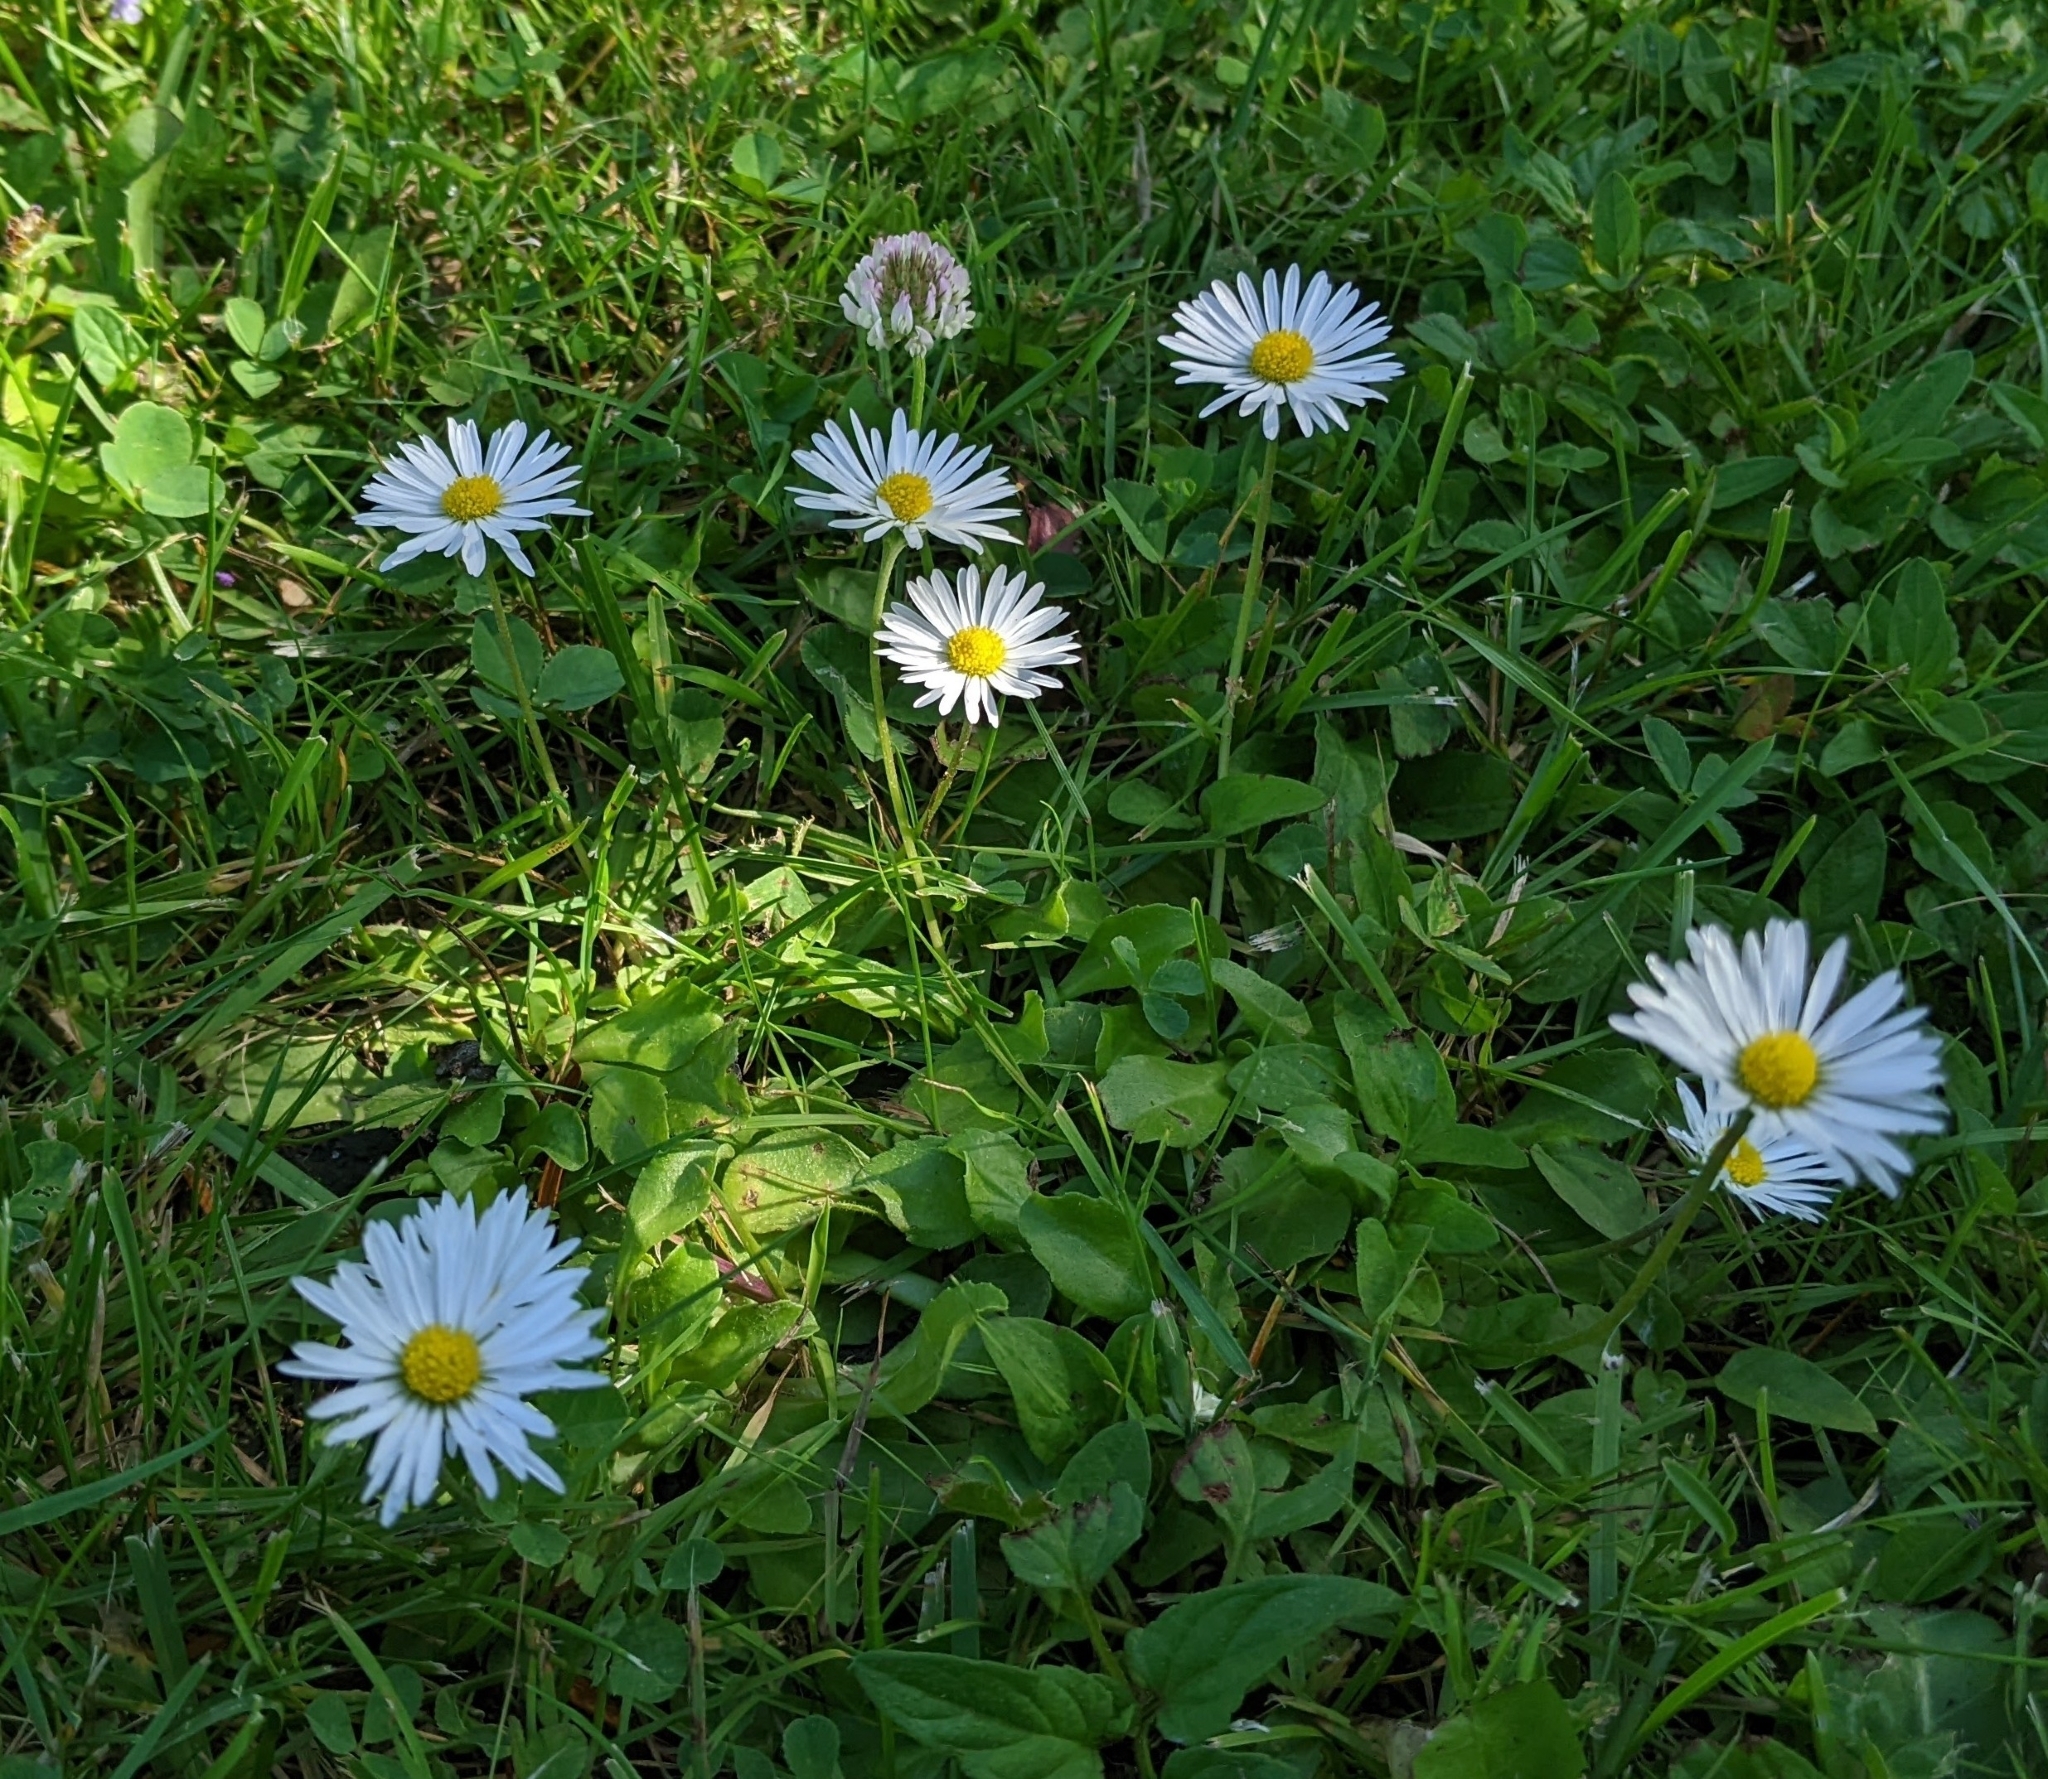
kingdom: Plantae
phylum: Tracheophyta
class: Magnoliopsida
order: Asterales
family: Asteraceae
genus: Bellis
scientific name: Bellis perennis
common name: Lawndaisy
